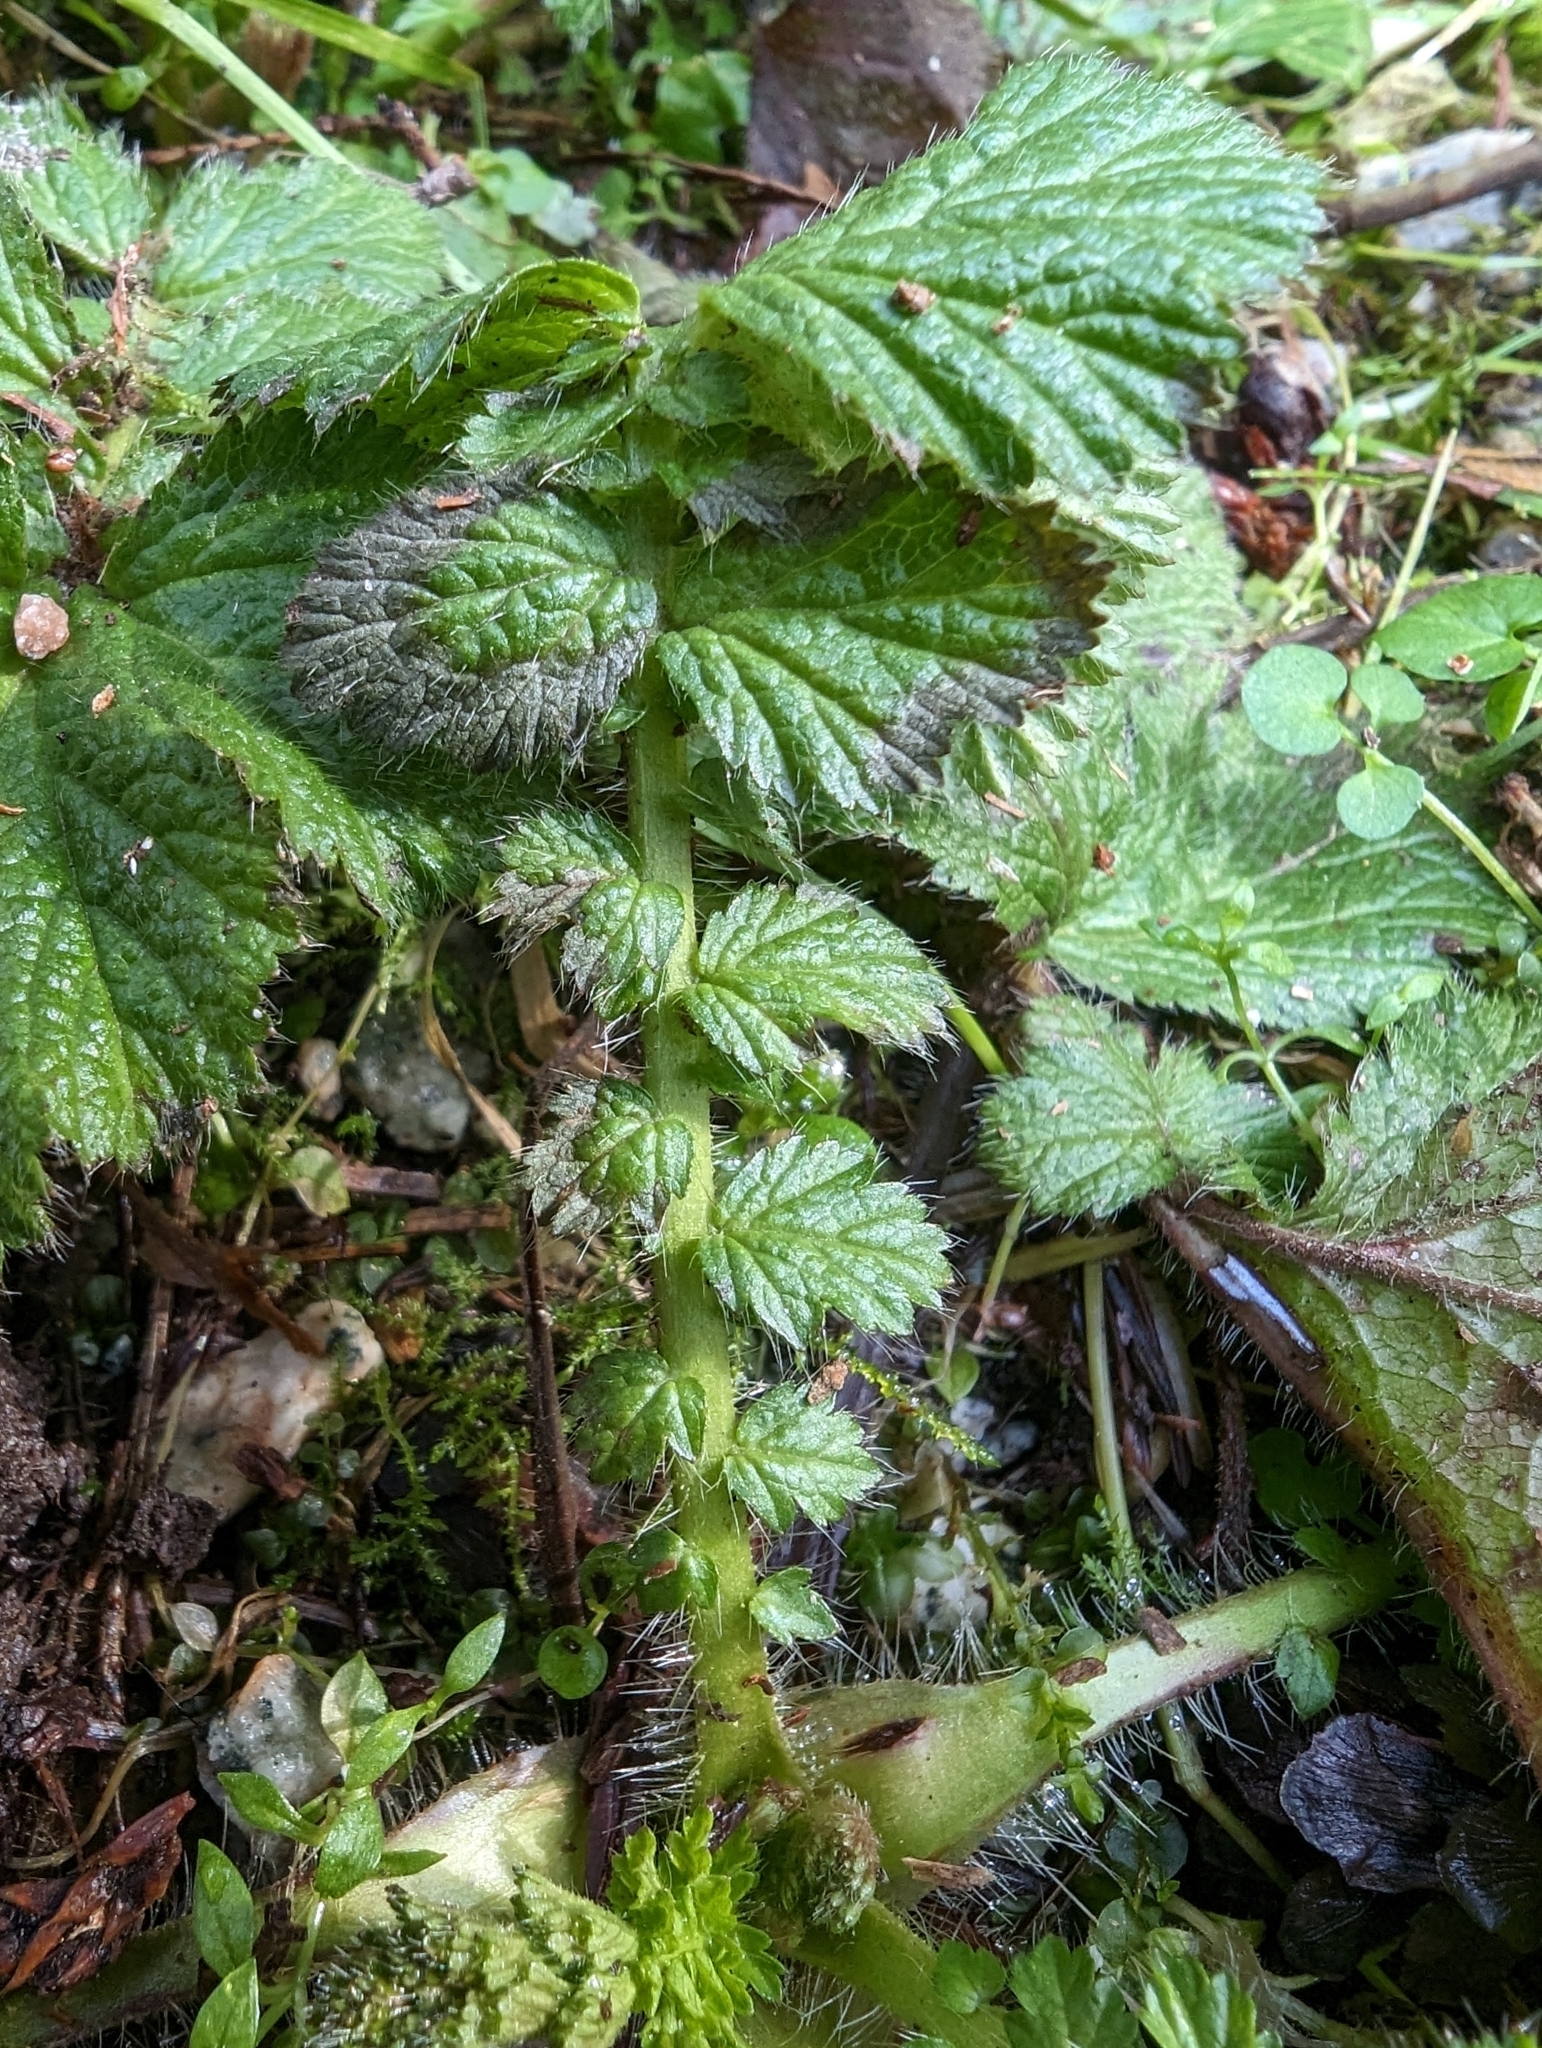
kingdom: Plantae
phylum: Tracheophyta
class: Magnoliopsida
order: Rosales
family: Rosaceae
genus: Geum
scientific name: Geum macrophyllum
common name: Large-leaved avens
